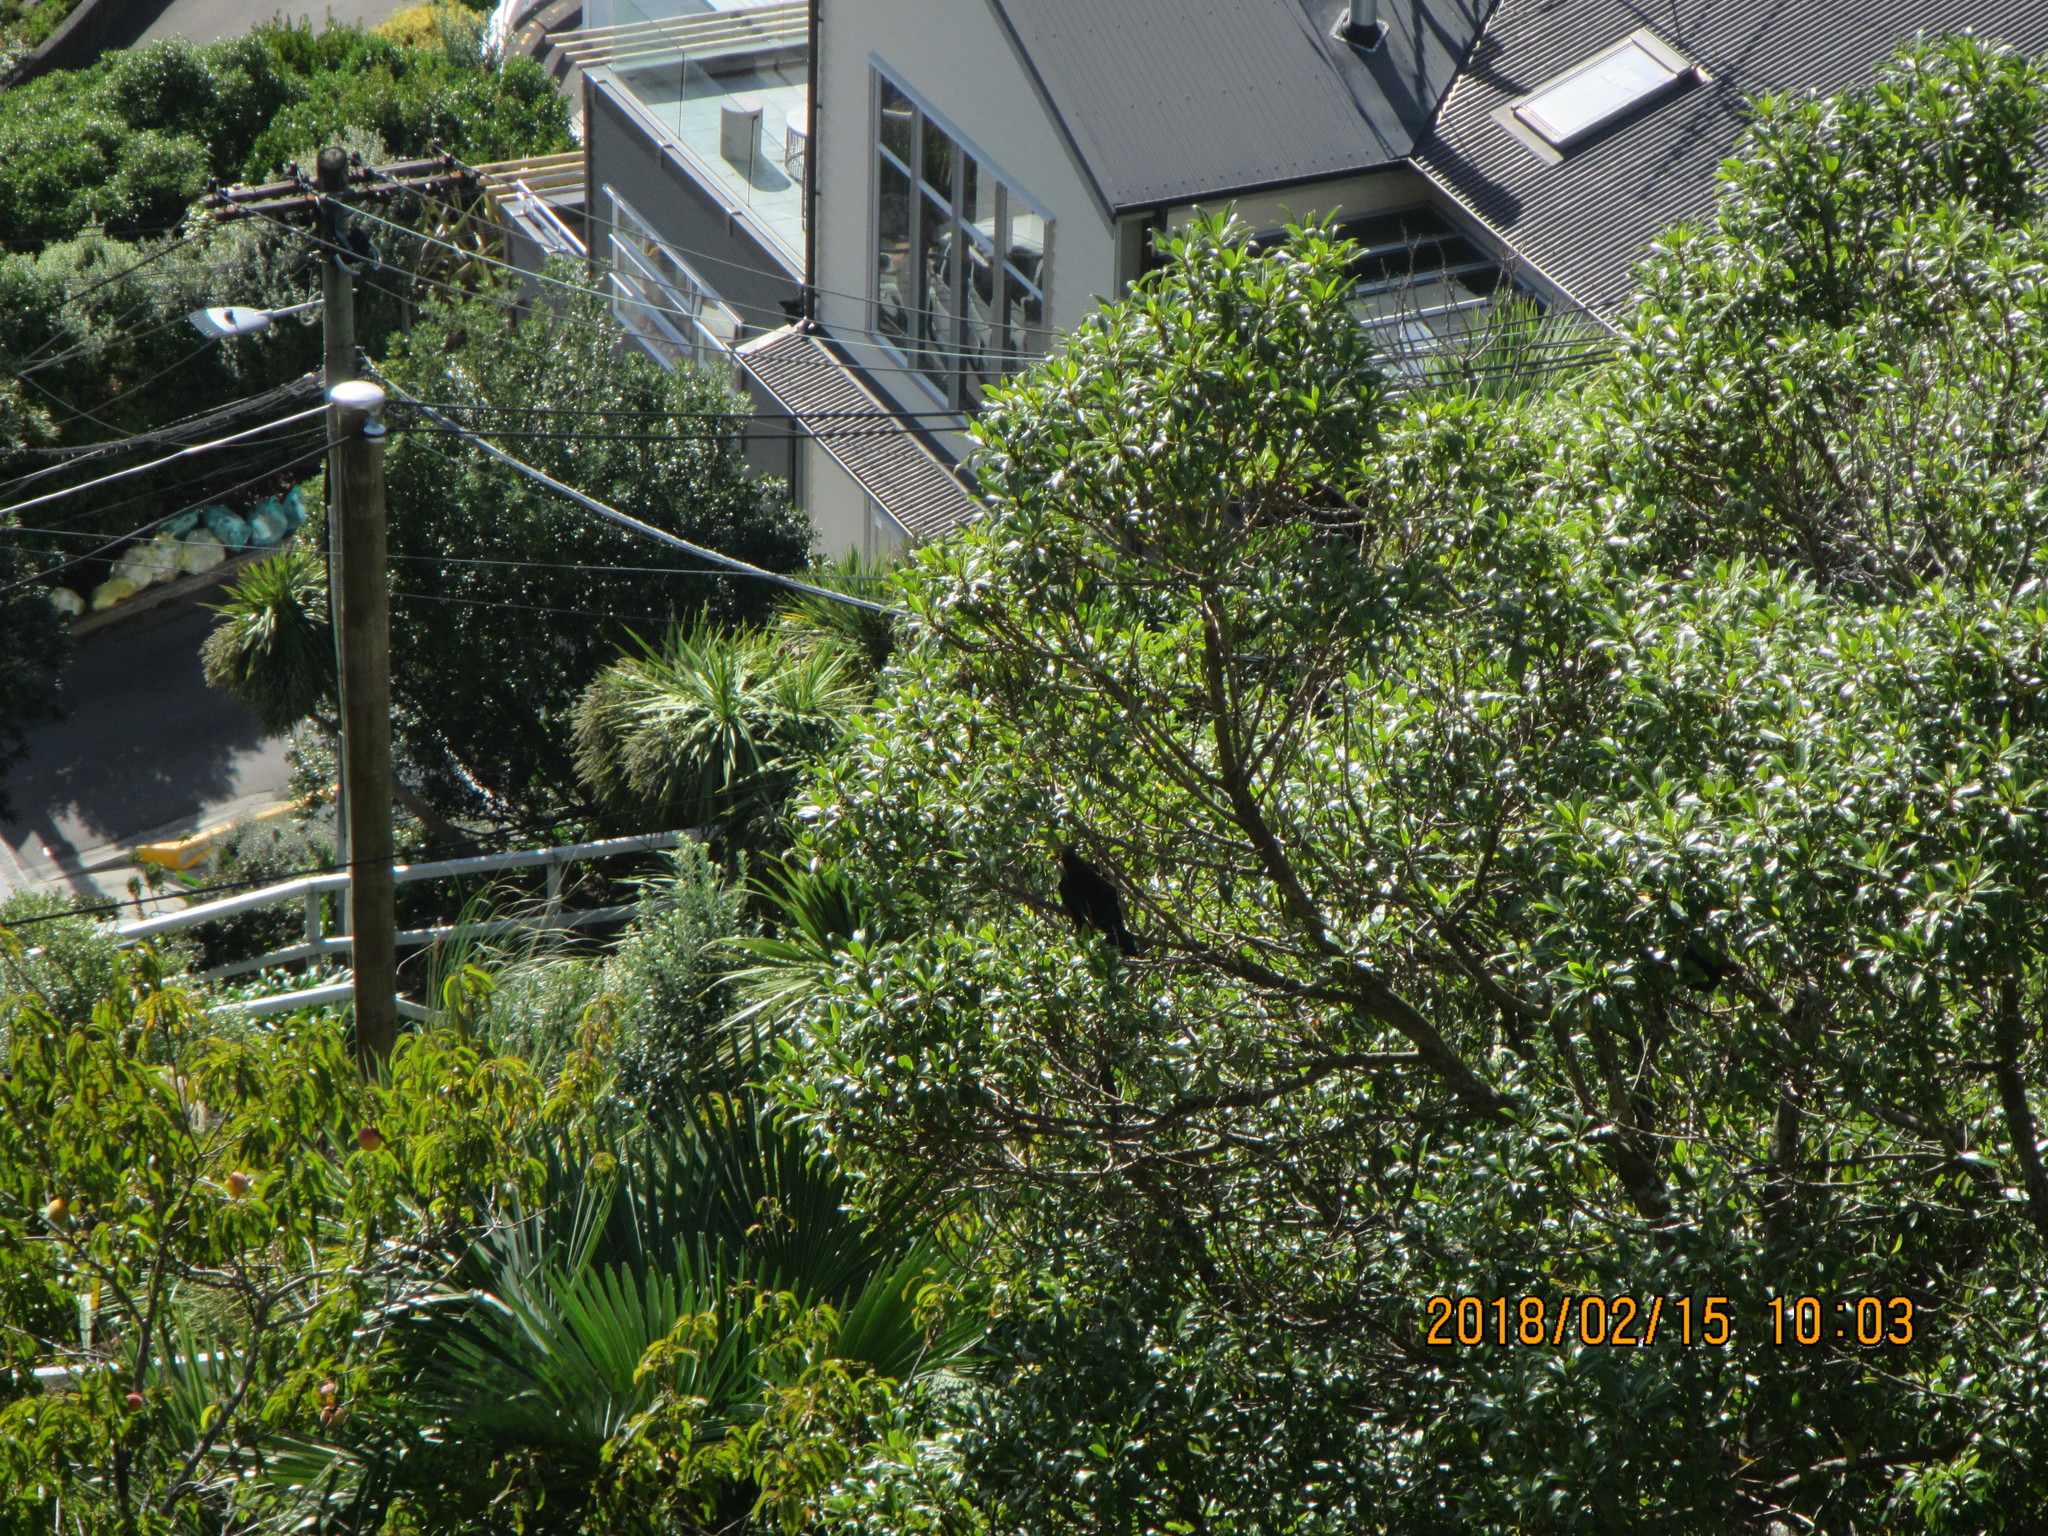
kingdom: Animalia
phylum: Chordata
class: Aves
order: Passeriformes
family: Meliphagidae
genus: Prosthemadera
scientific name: Prosthemadera novaeseelandiae
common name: Tui
